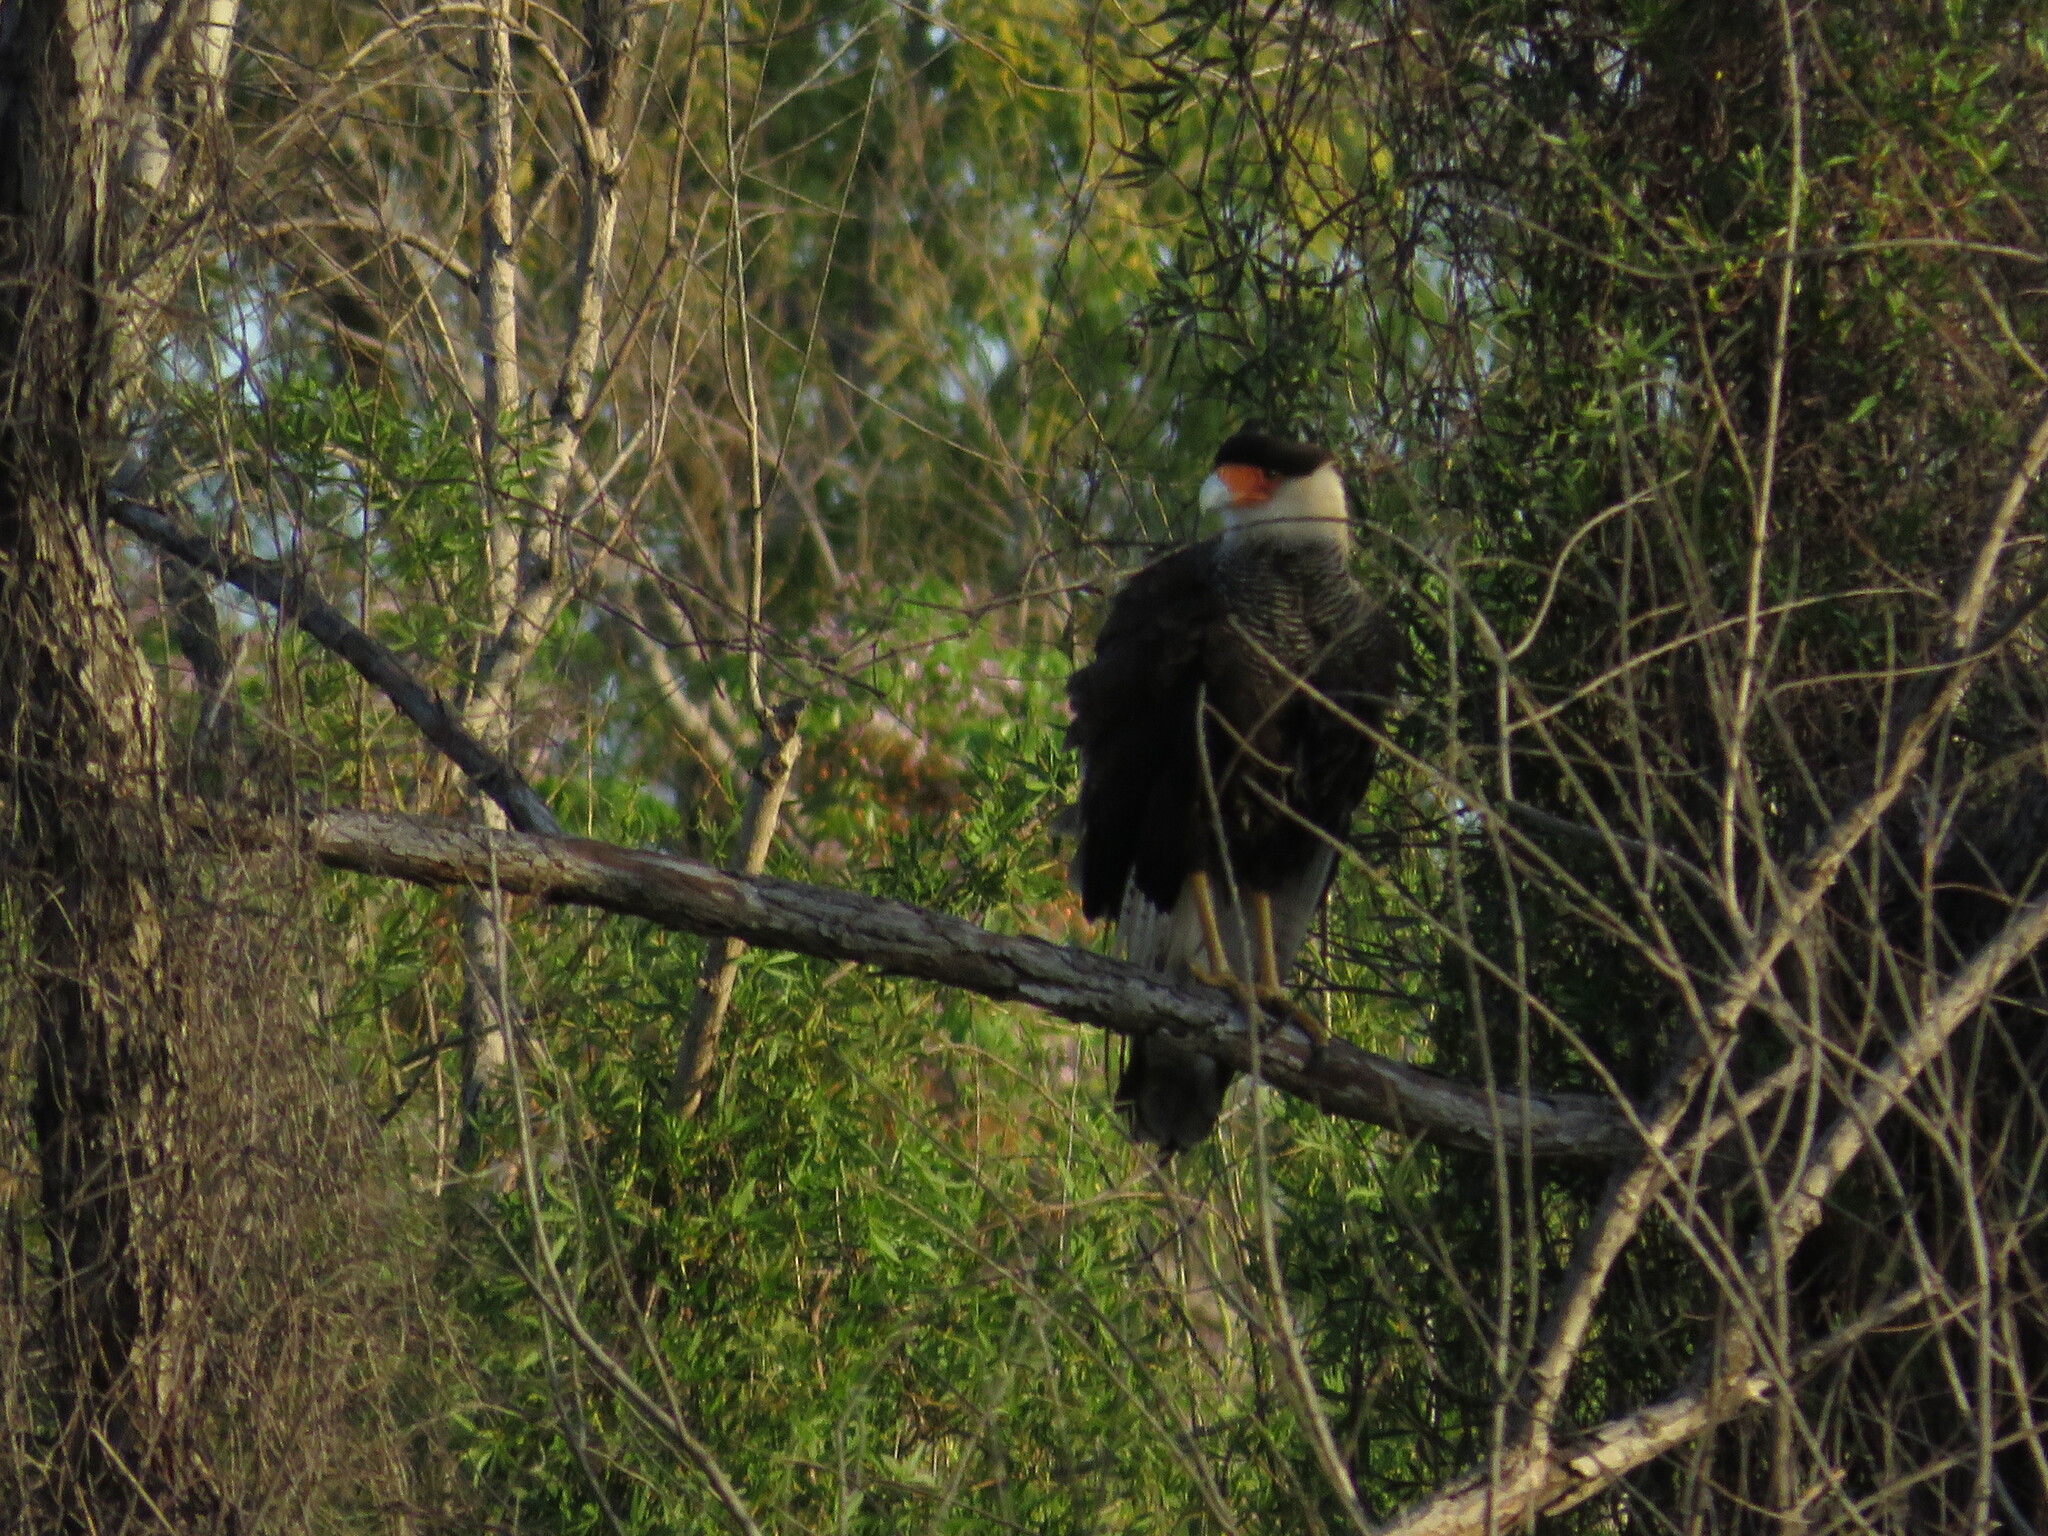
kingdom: Animalia
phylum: Chordata
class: Aves
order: Falconiformes
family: Falconidae
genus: Caracara
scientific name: Caracara plancus
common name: Southern caracara
